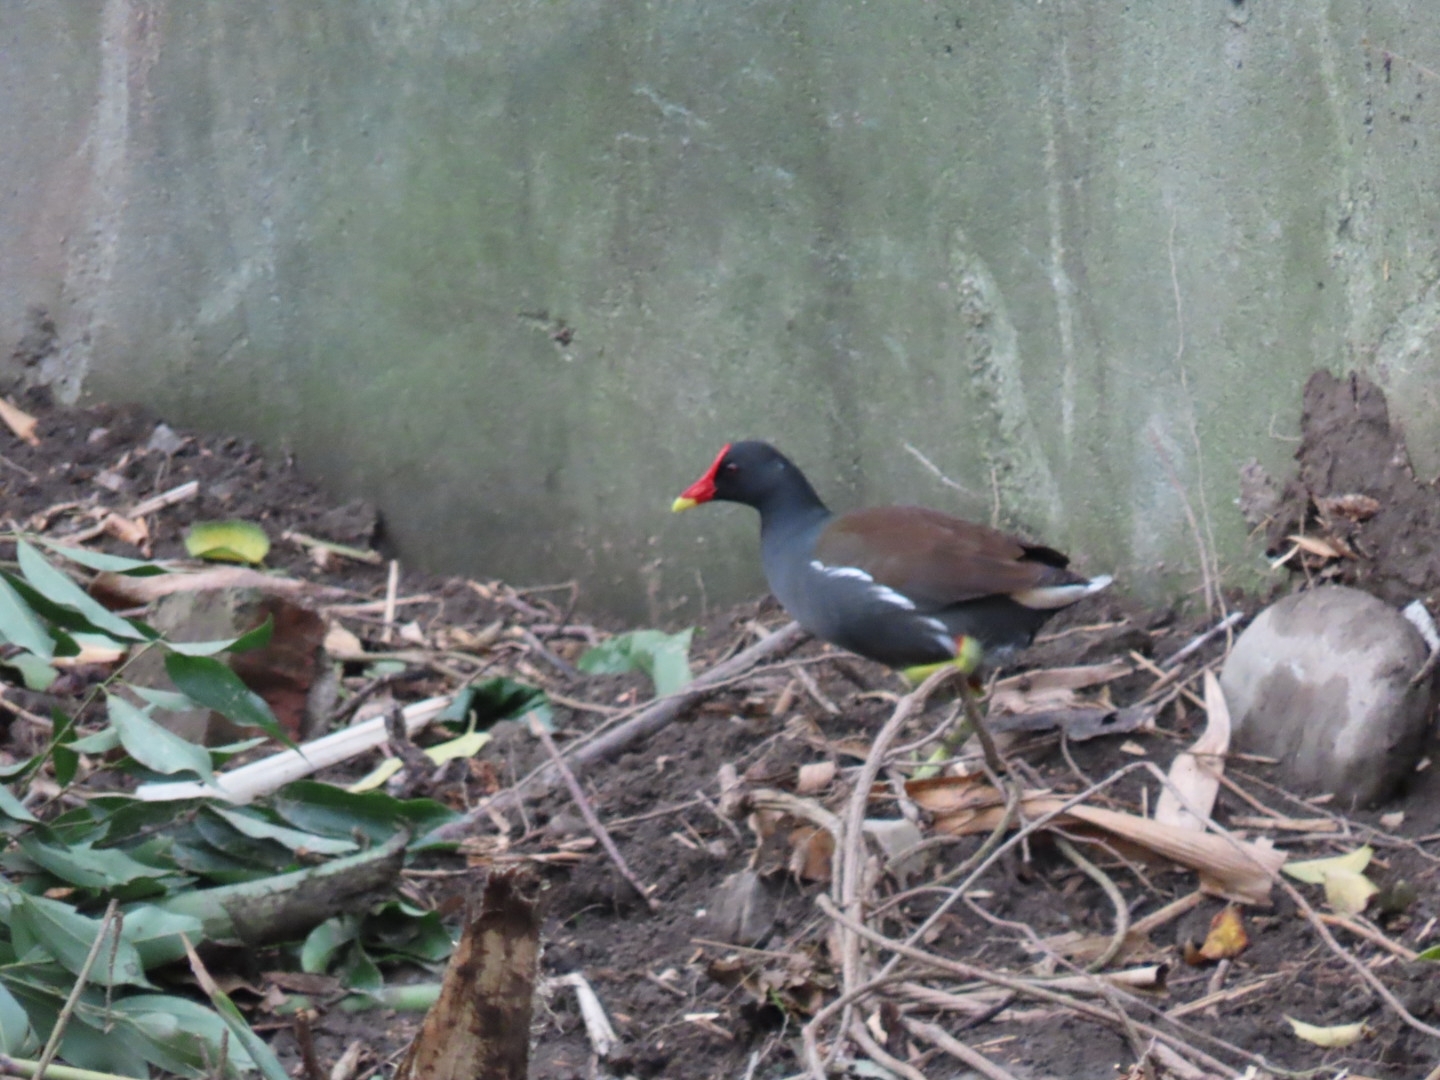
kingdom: Animalia
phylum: Chordata
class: Aves
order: Gruiformes
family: Rallidae
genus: Gallinula
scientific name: Gallinula chloropus
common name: Common moorhen
